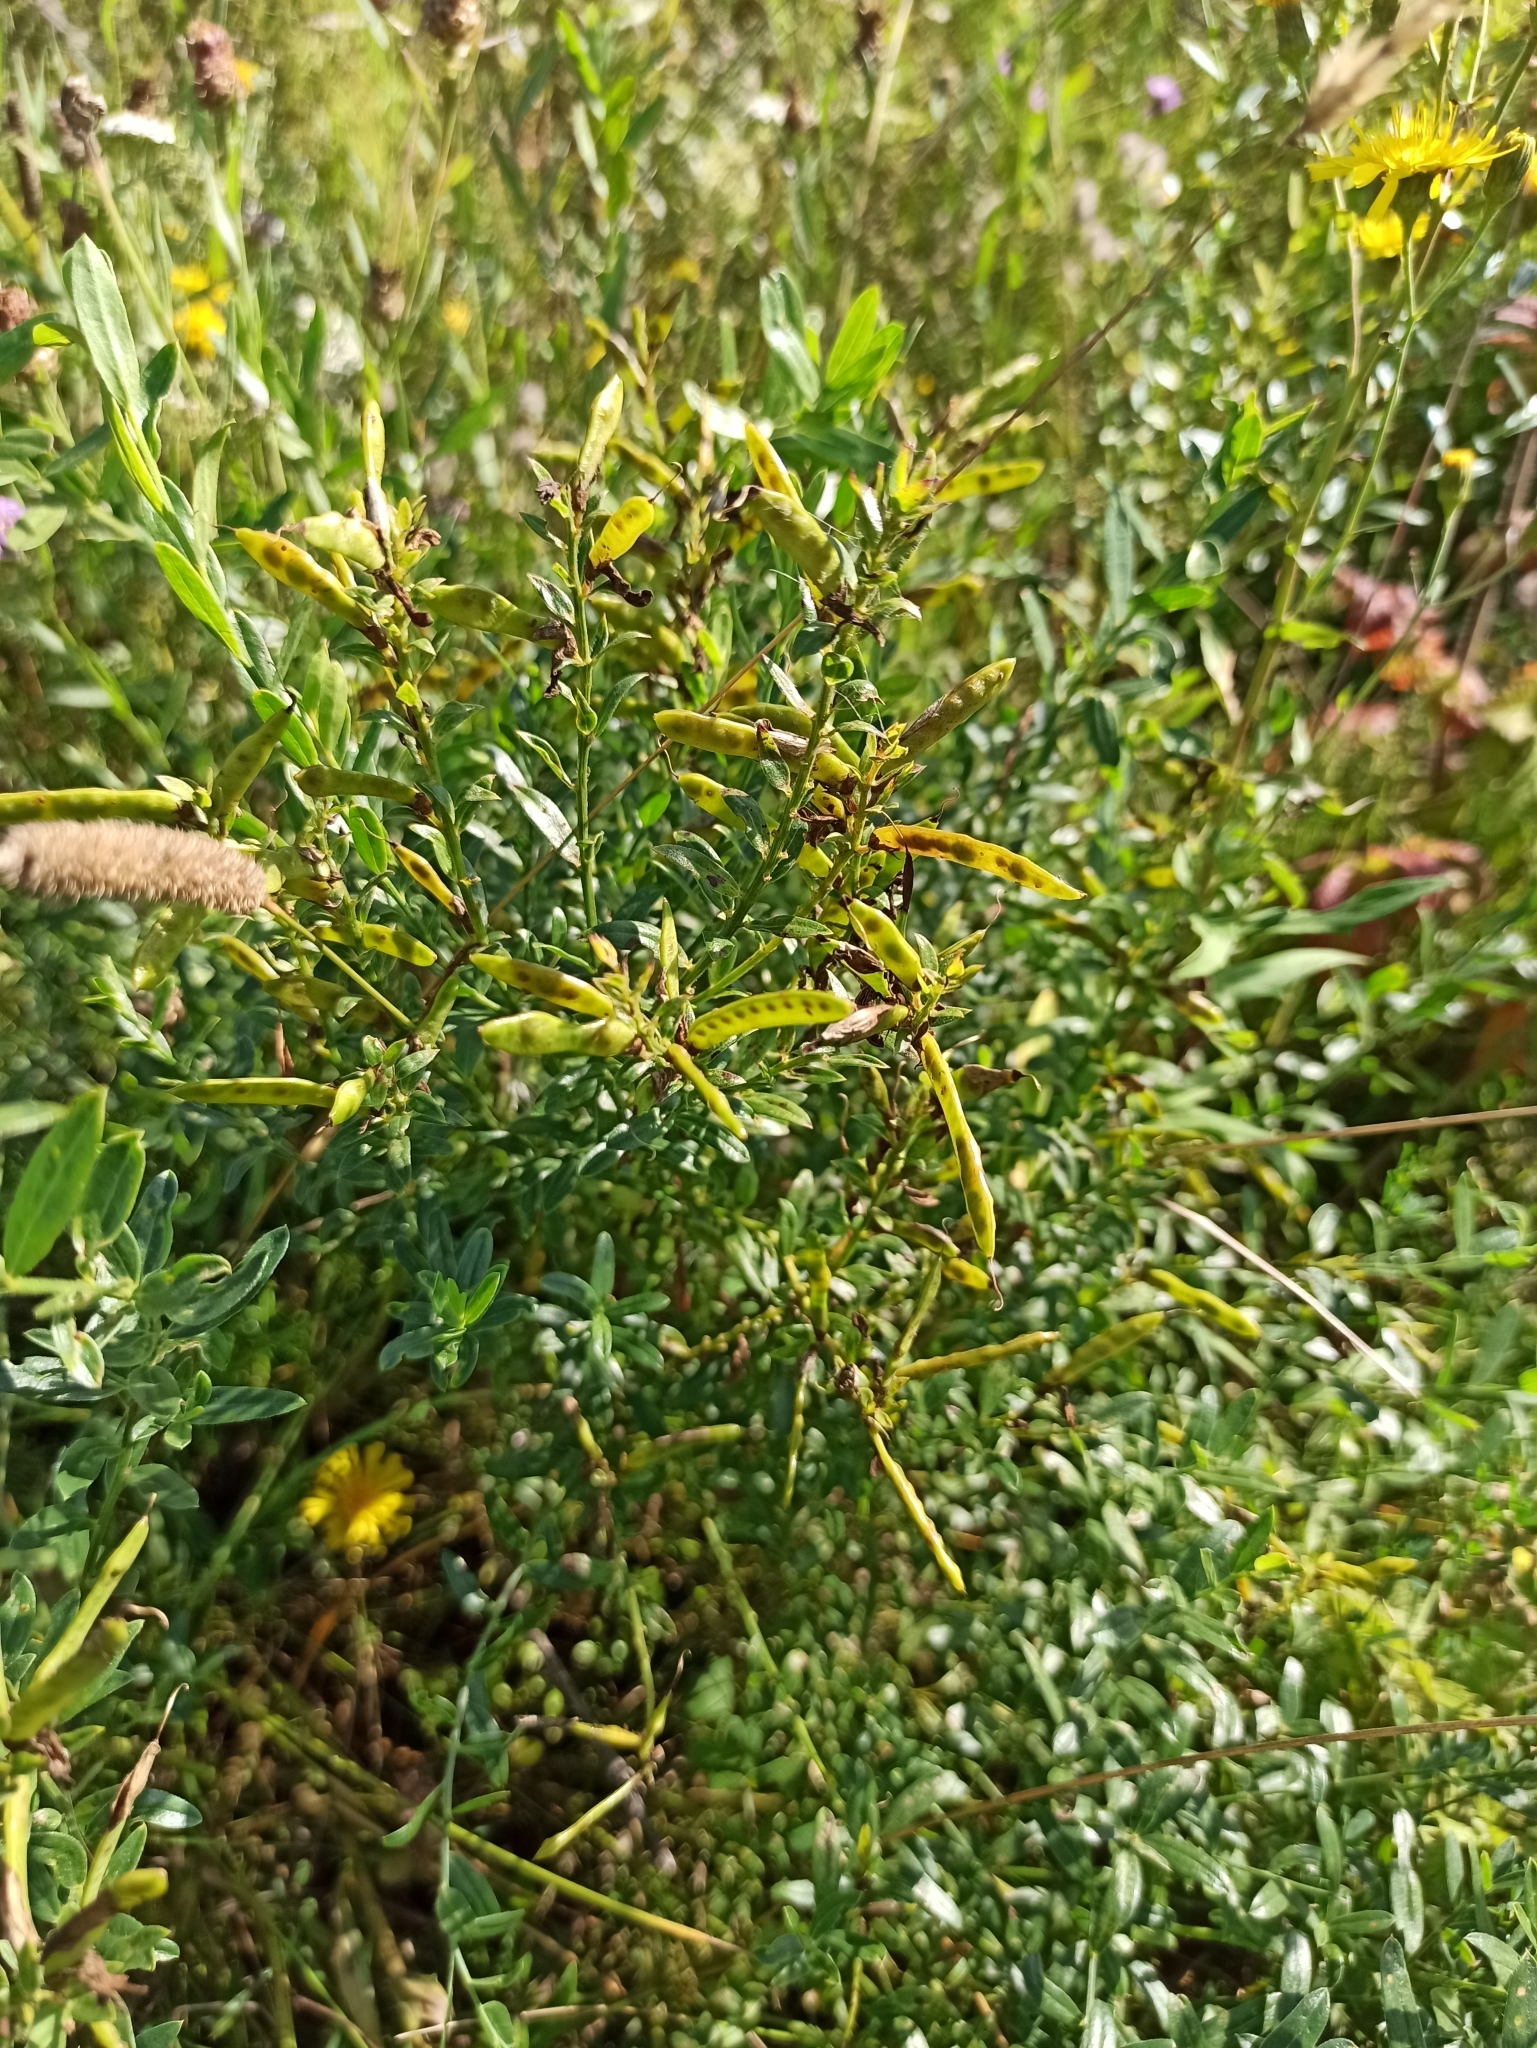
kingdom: Plantae
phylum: Tracheophyta
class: Magnoliopsida
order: Fabales
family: Fabaceae
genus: Genista
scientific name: Genista tinctoria
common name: Dyer's greenweed
